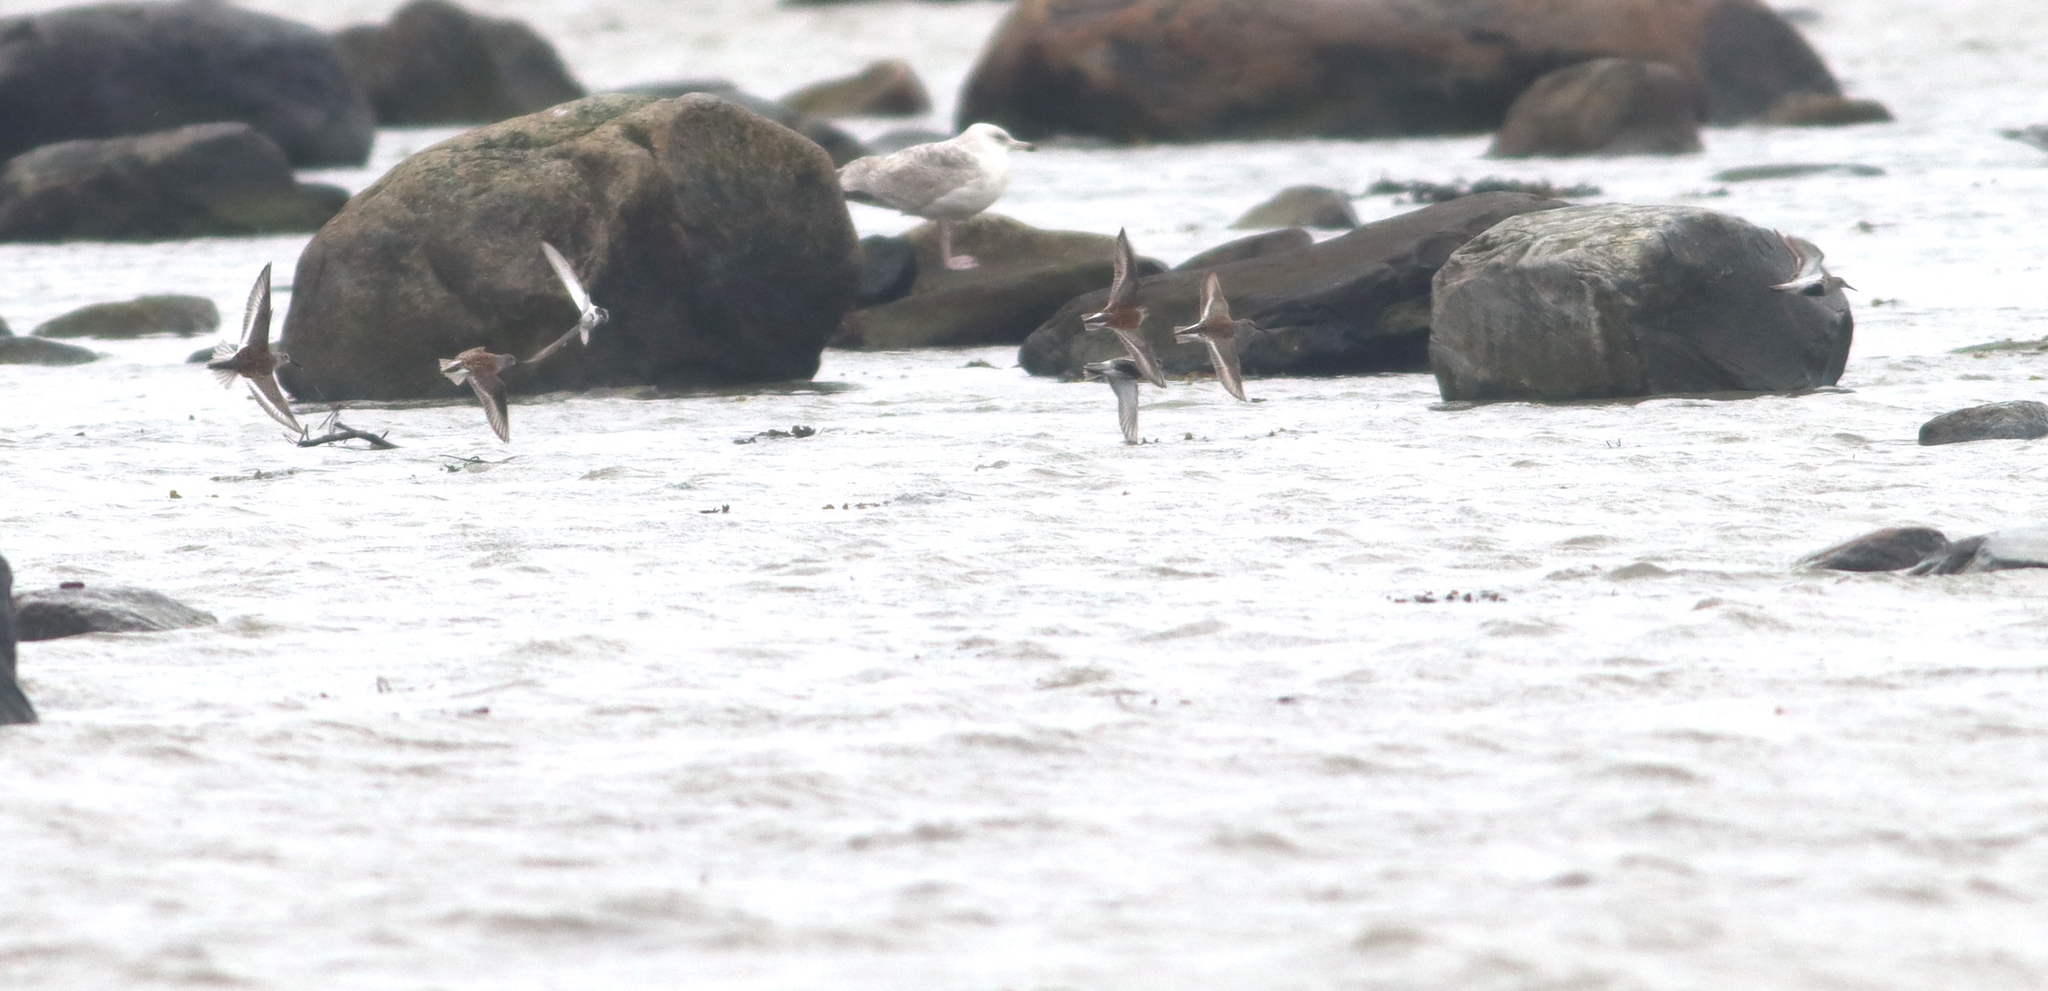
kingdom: Animalia
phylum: Chordata
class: Aves
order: Charadriiformes
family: Scolopacidae
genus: Calidris
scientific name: Calidris alpina
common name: Dunlin
